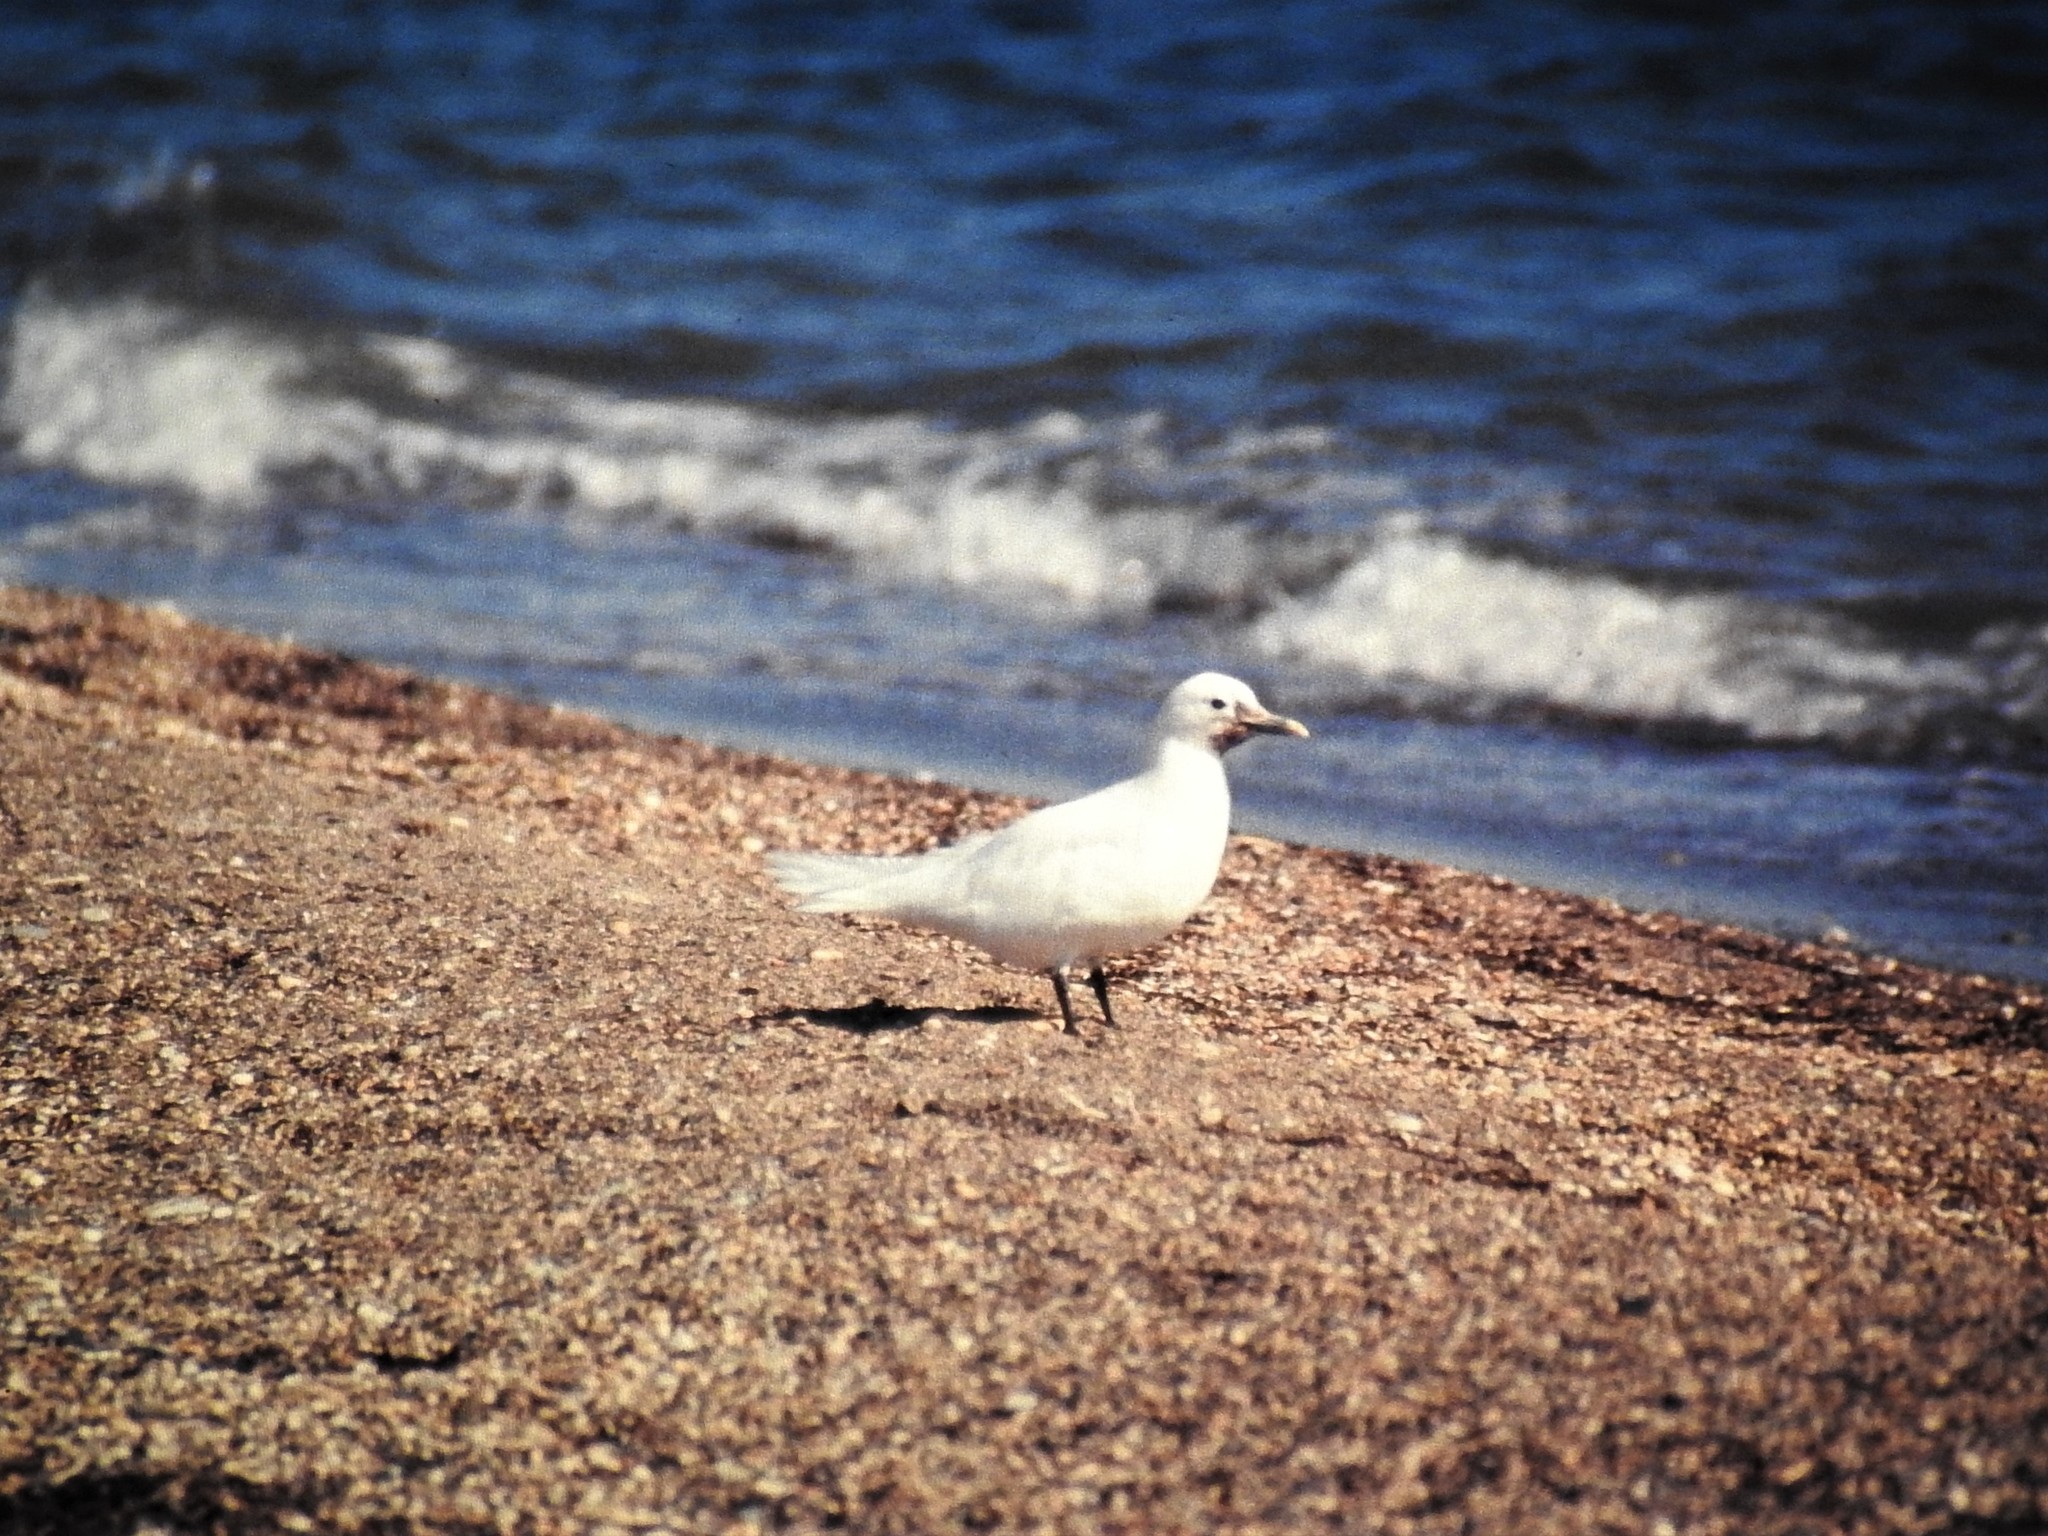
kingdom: Animalia
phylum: Chordata
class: Aves
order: Charadriiformes
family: Laridae
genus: Pagophila
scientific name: Pagophila eburnea
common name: Ivory gull
